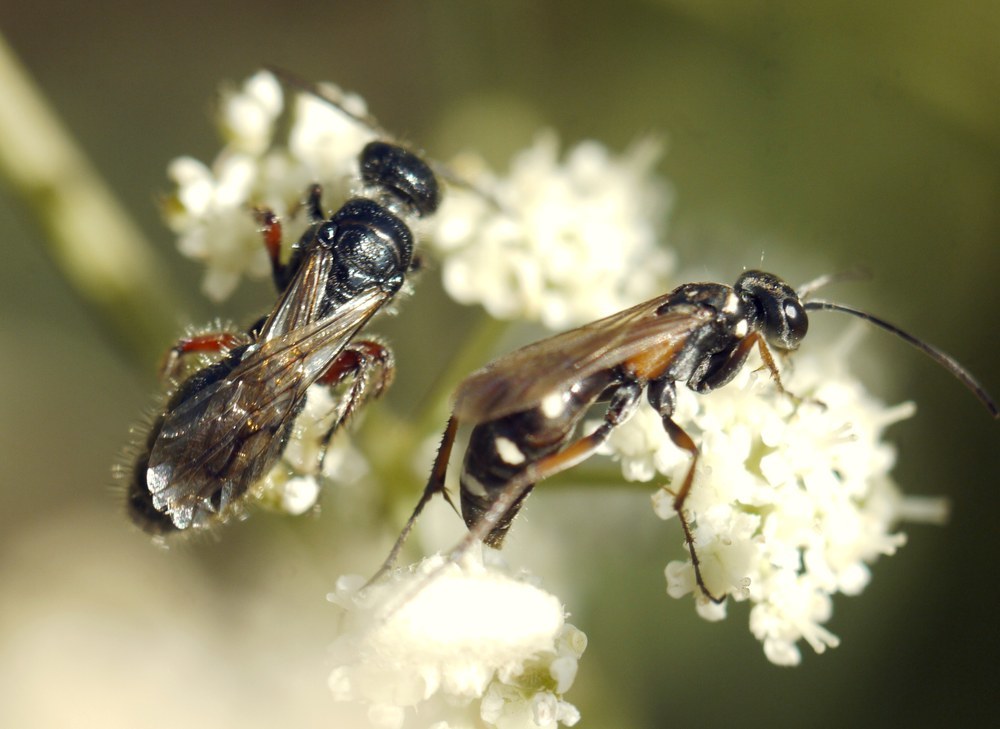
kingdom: Animalia
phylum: Arthropoda
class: Insecta
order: Hymenoptera
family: Pompilidae
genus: Cryptocheilus
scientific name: Cryptocheilus fabricii
